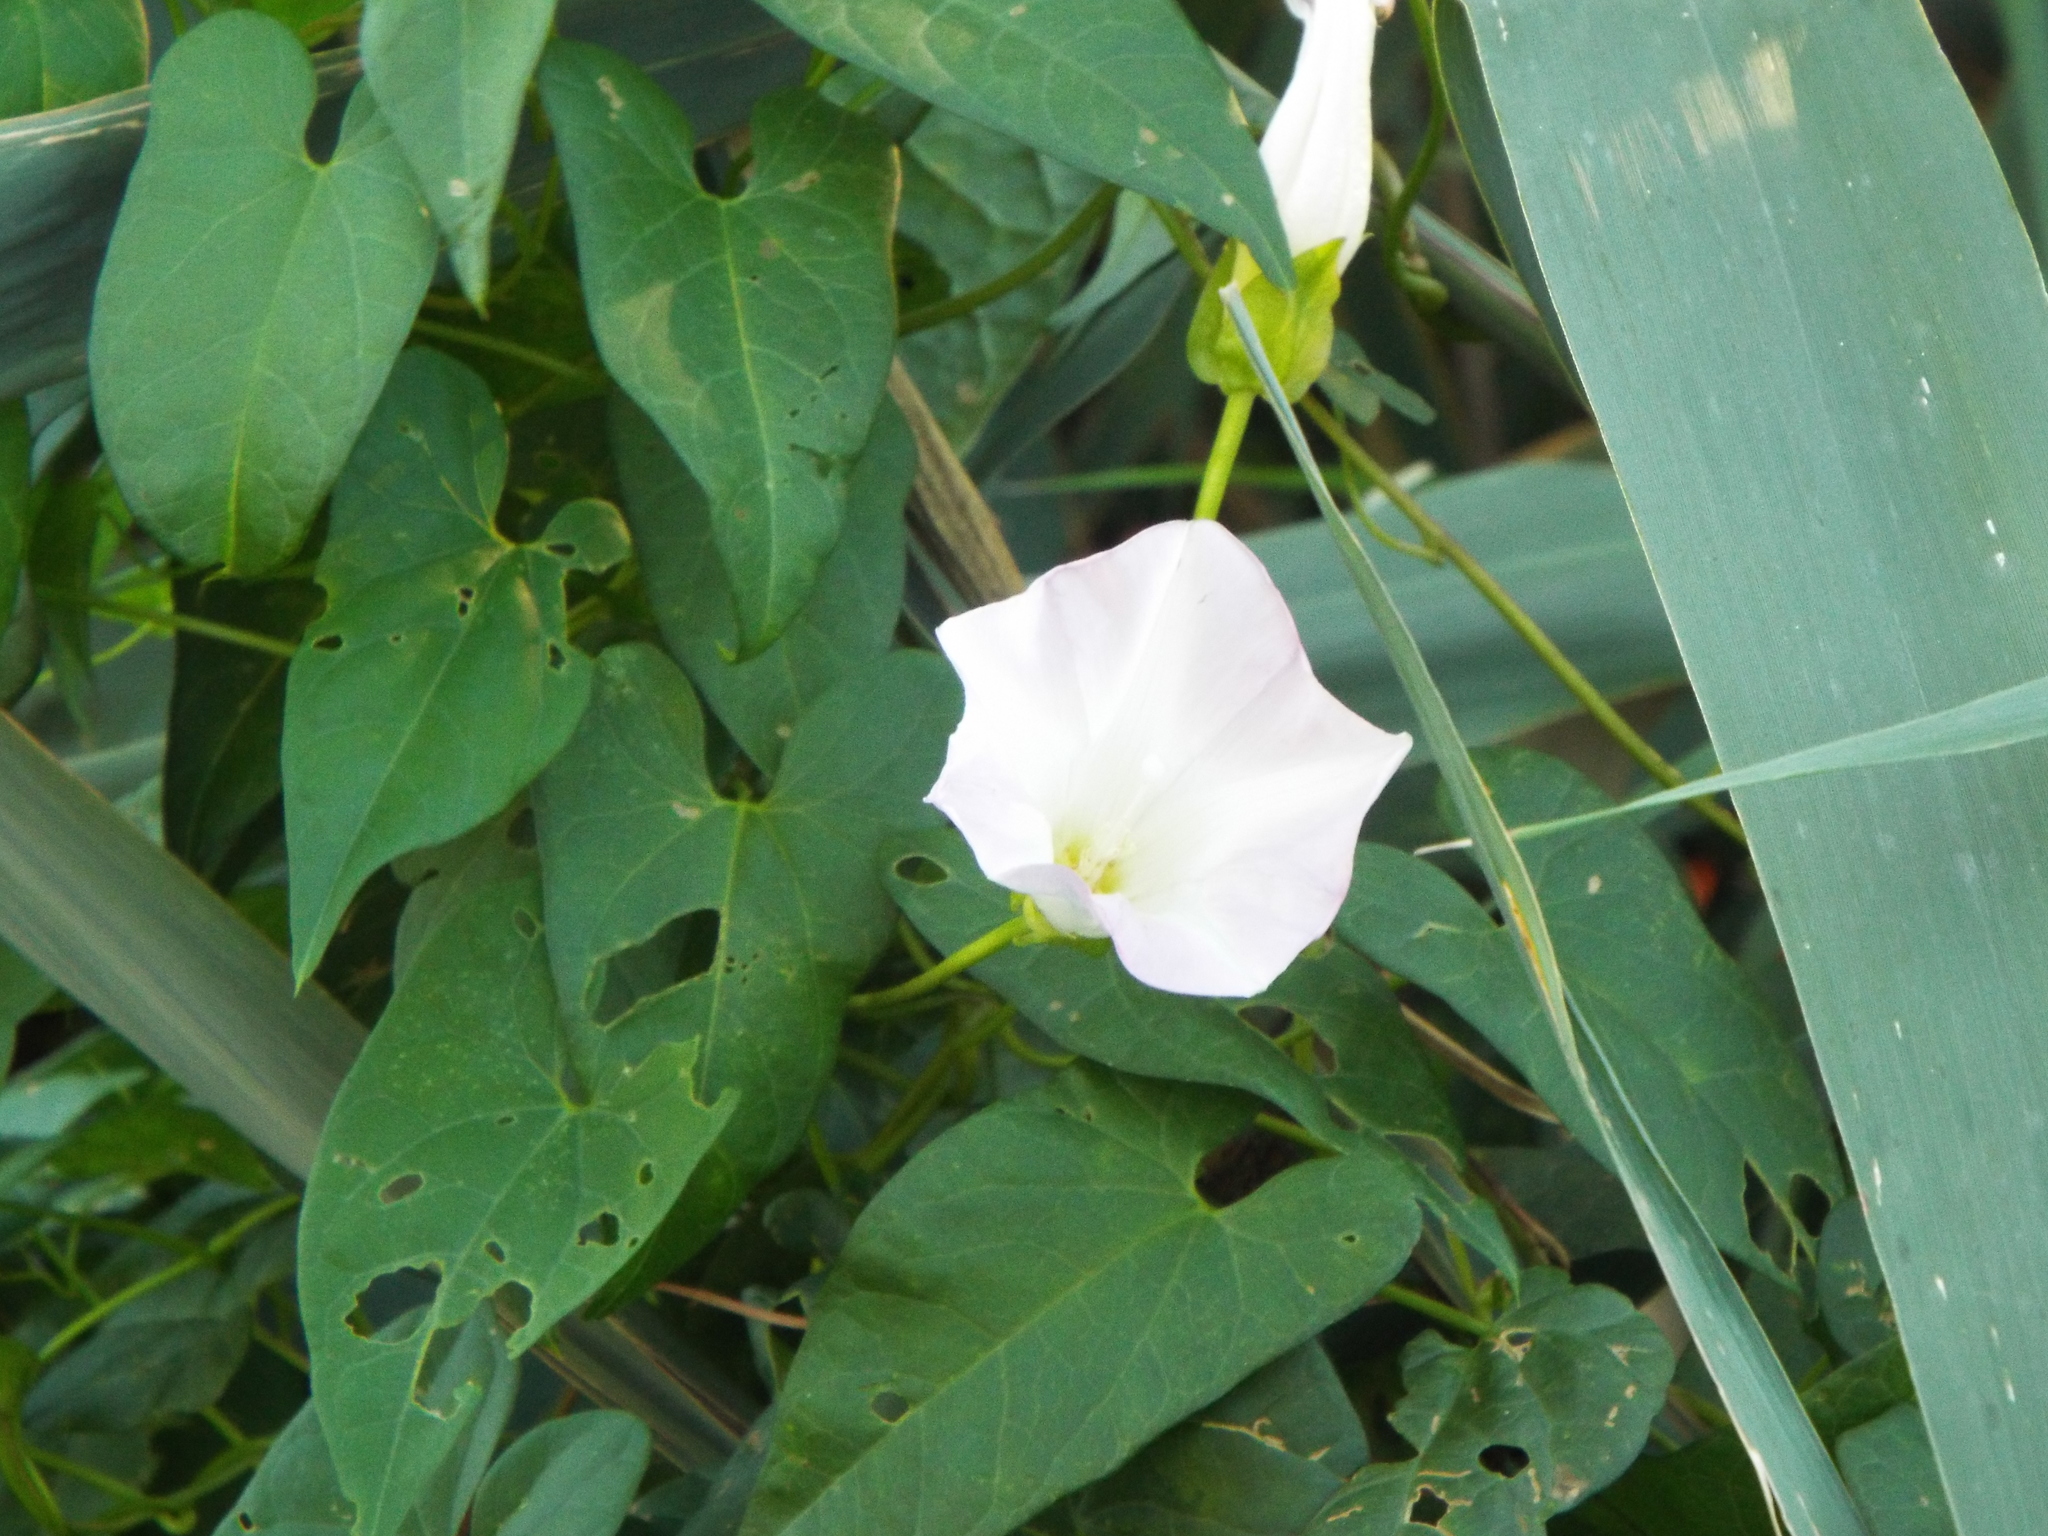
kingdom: Plantae
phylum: Tracheophyta
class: Magnoliopsida
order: Solanales
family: Convolvulaceae
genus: Calystegia
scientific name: Calystegia sepium
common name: Hedge bindweed
